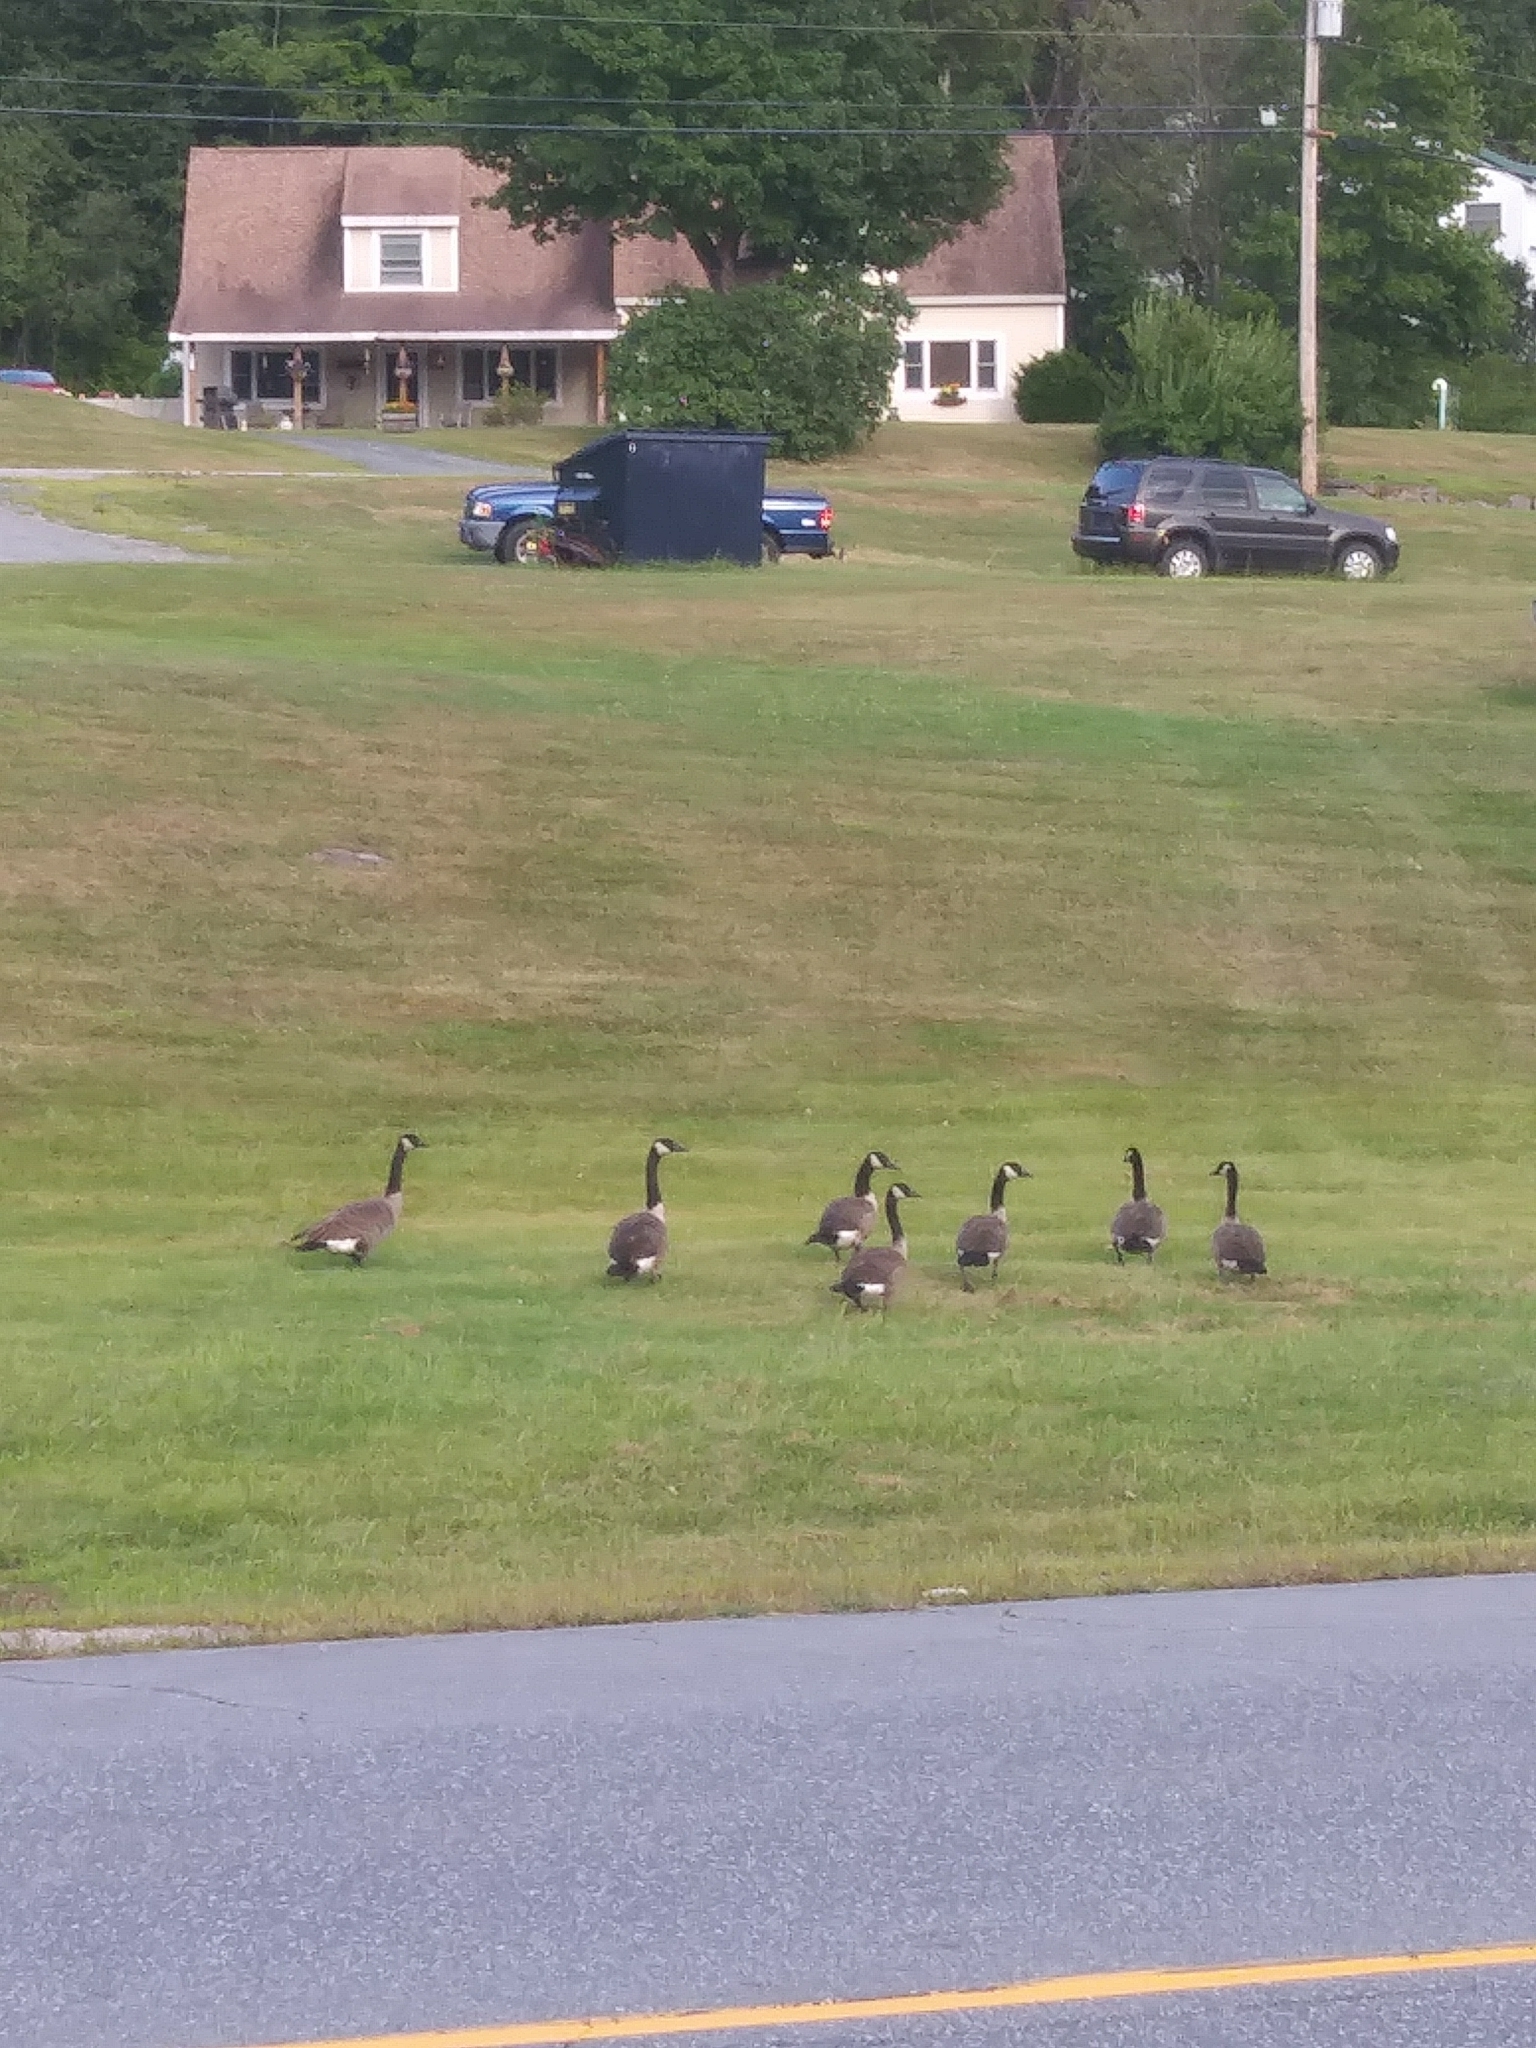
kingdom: Animalia
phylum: Chordata
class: Aves
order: Anseriformes
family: Anatidae
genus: Branta
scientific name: Branta canadensis
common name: Canada goose
